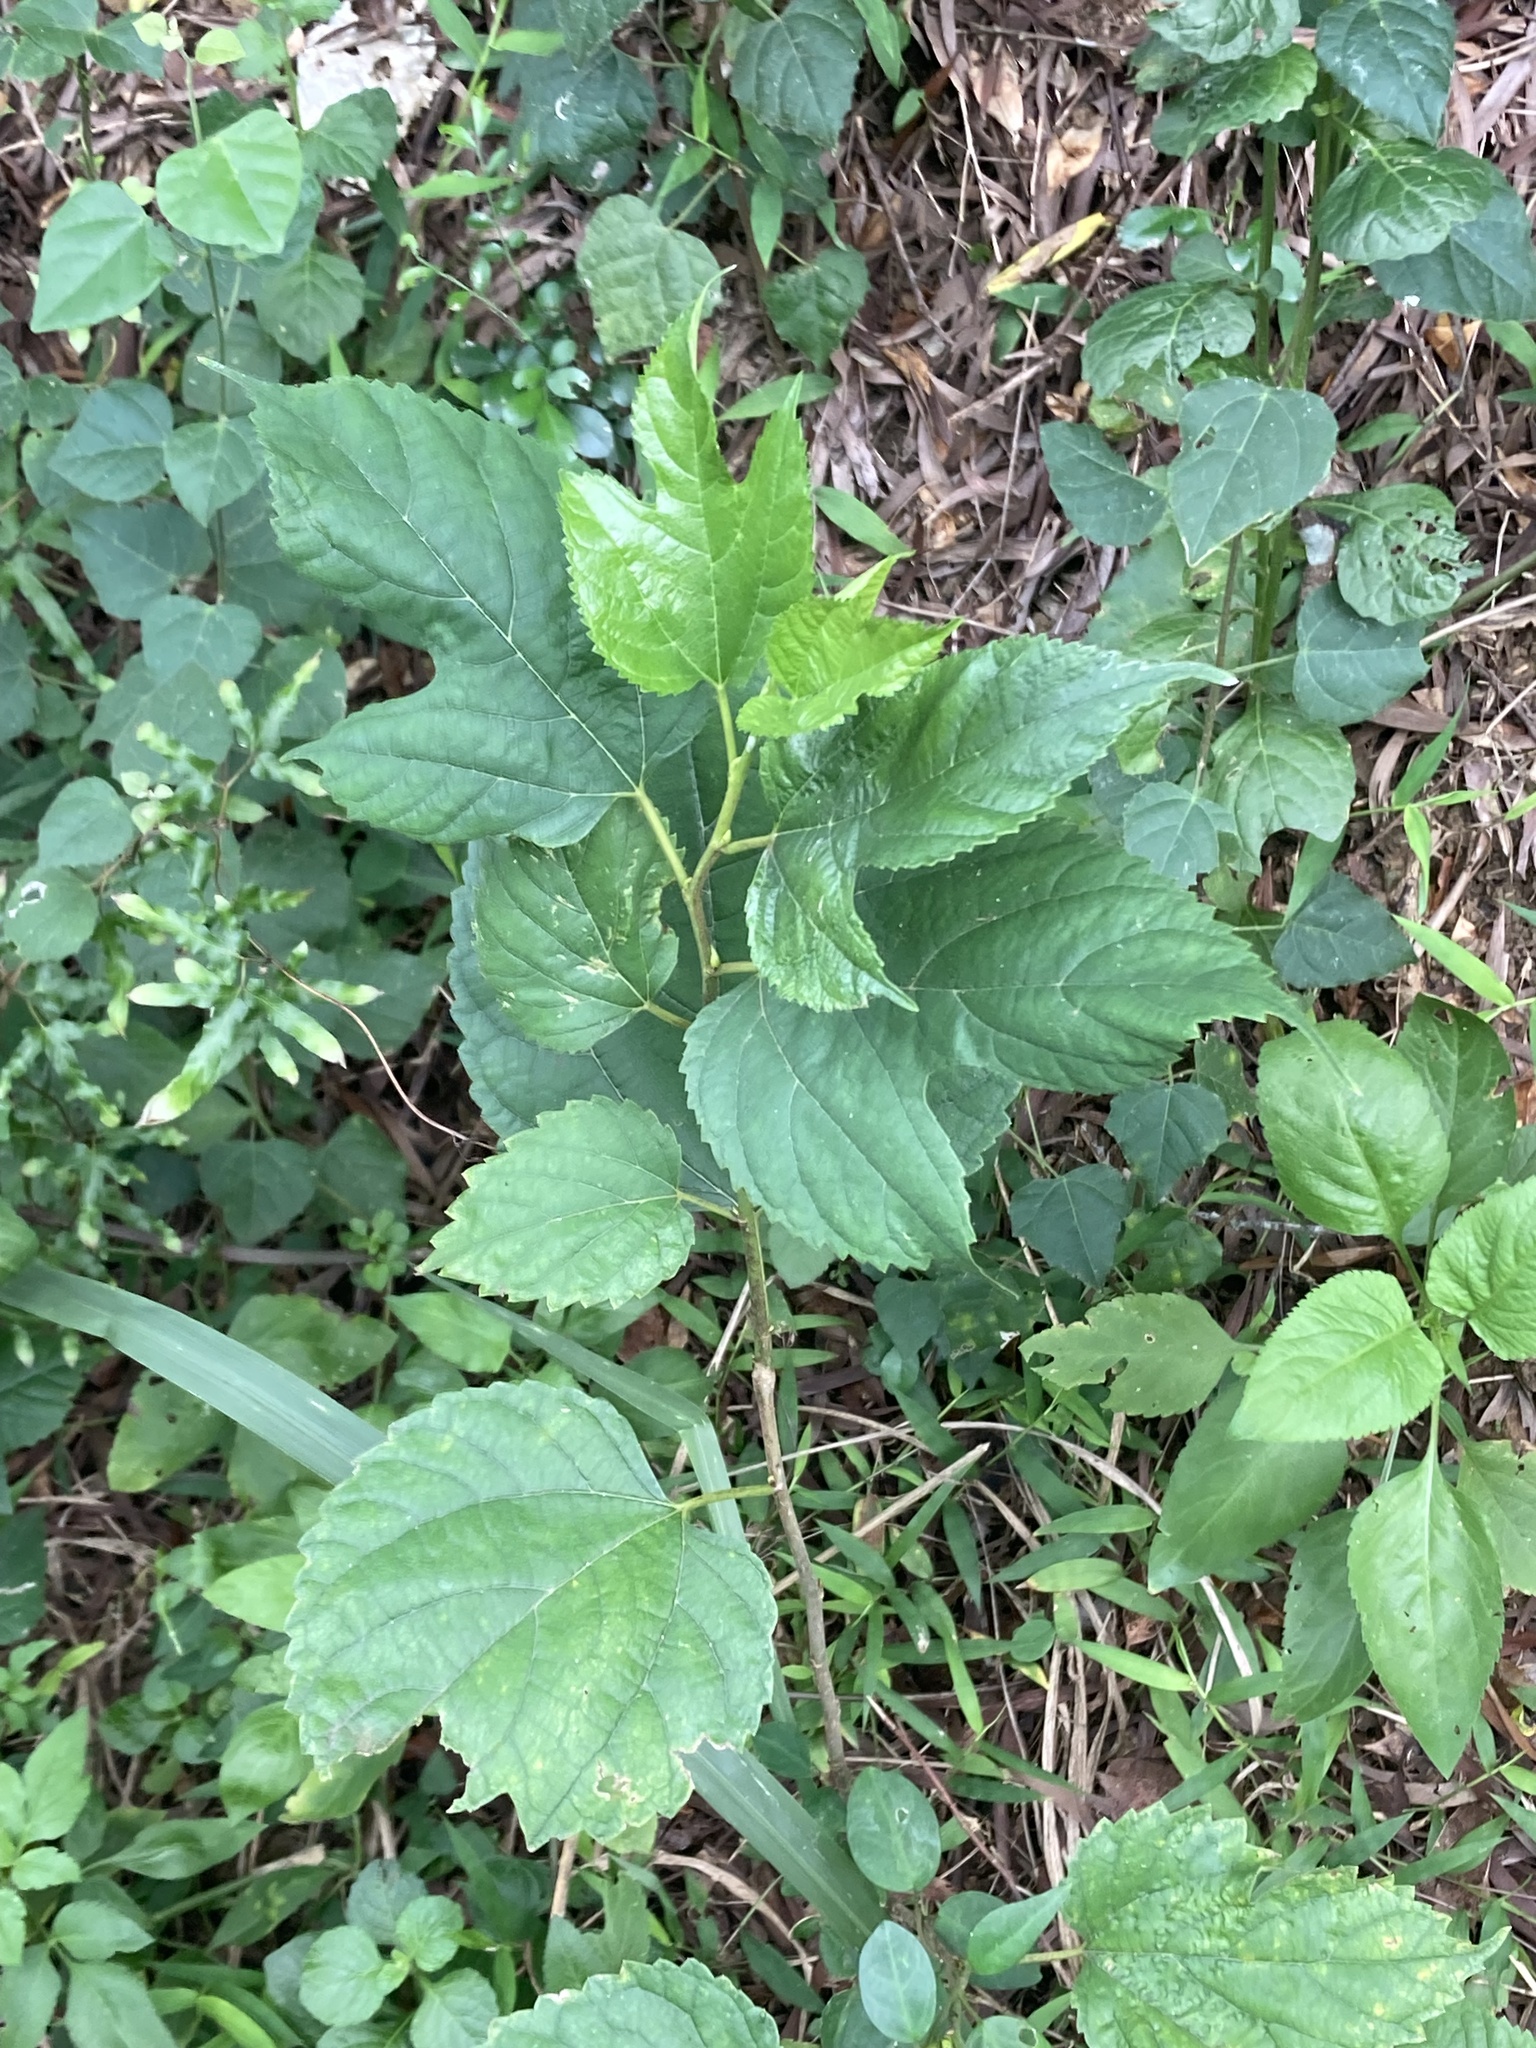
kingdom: Plantae
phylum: Tracheophyta
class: Magnoliopsida
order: Rosales
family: Moraceae
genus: Morus
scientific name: Morus indica
